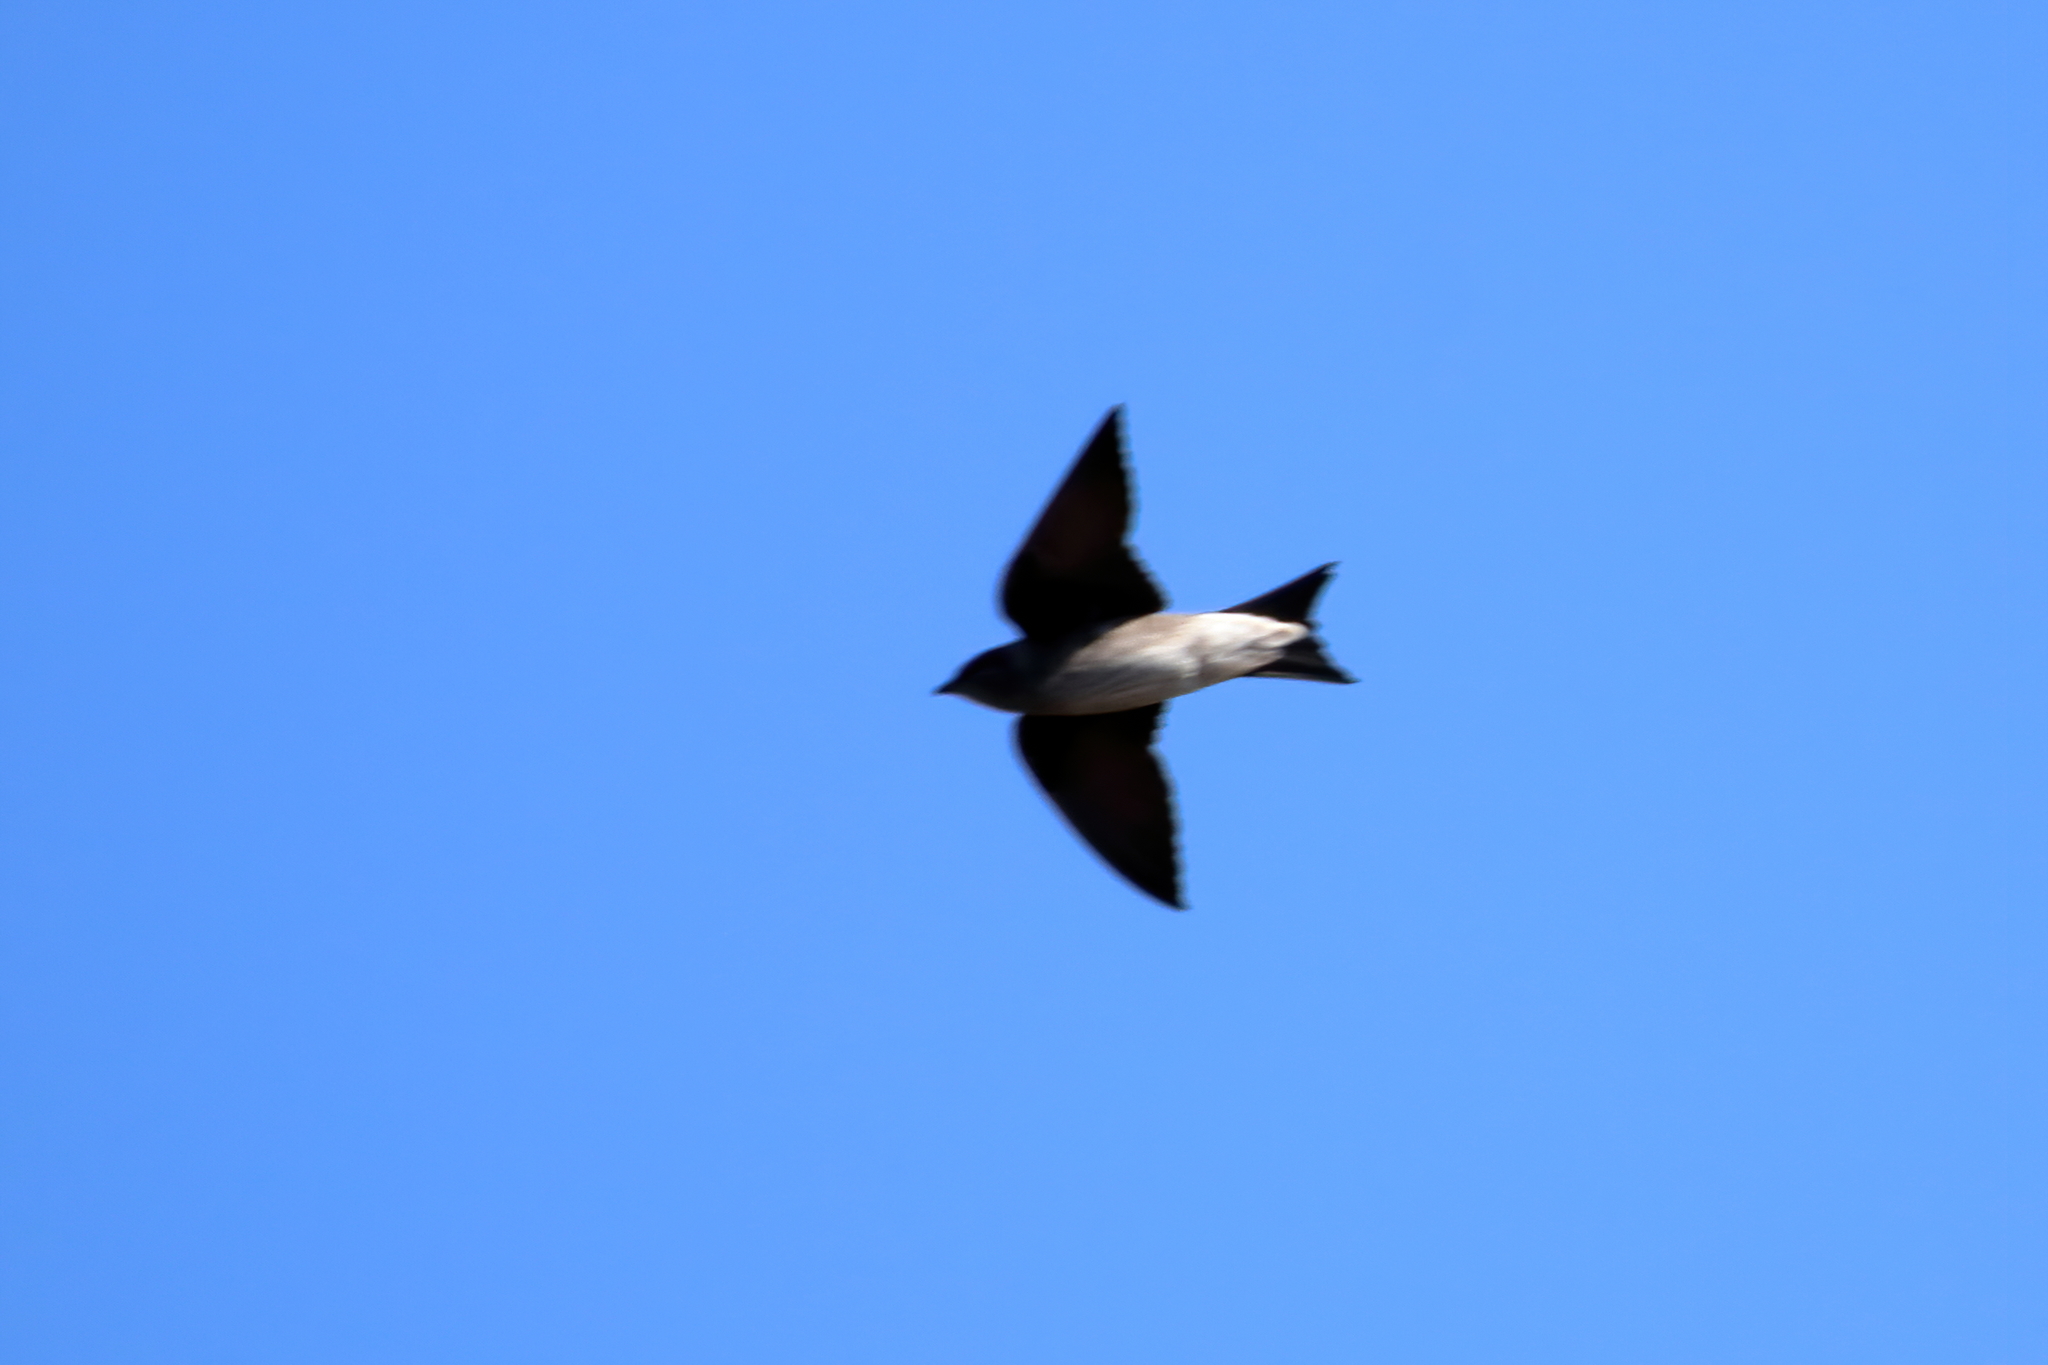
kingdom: Animalia
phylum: Chordata
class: Aves
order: Passeriformes
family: Hirundinidae
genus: Progne
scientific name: Progne subis
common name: Purple martin
